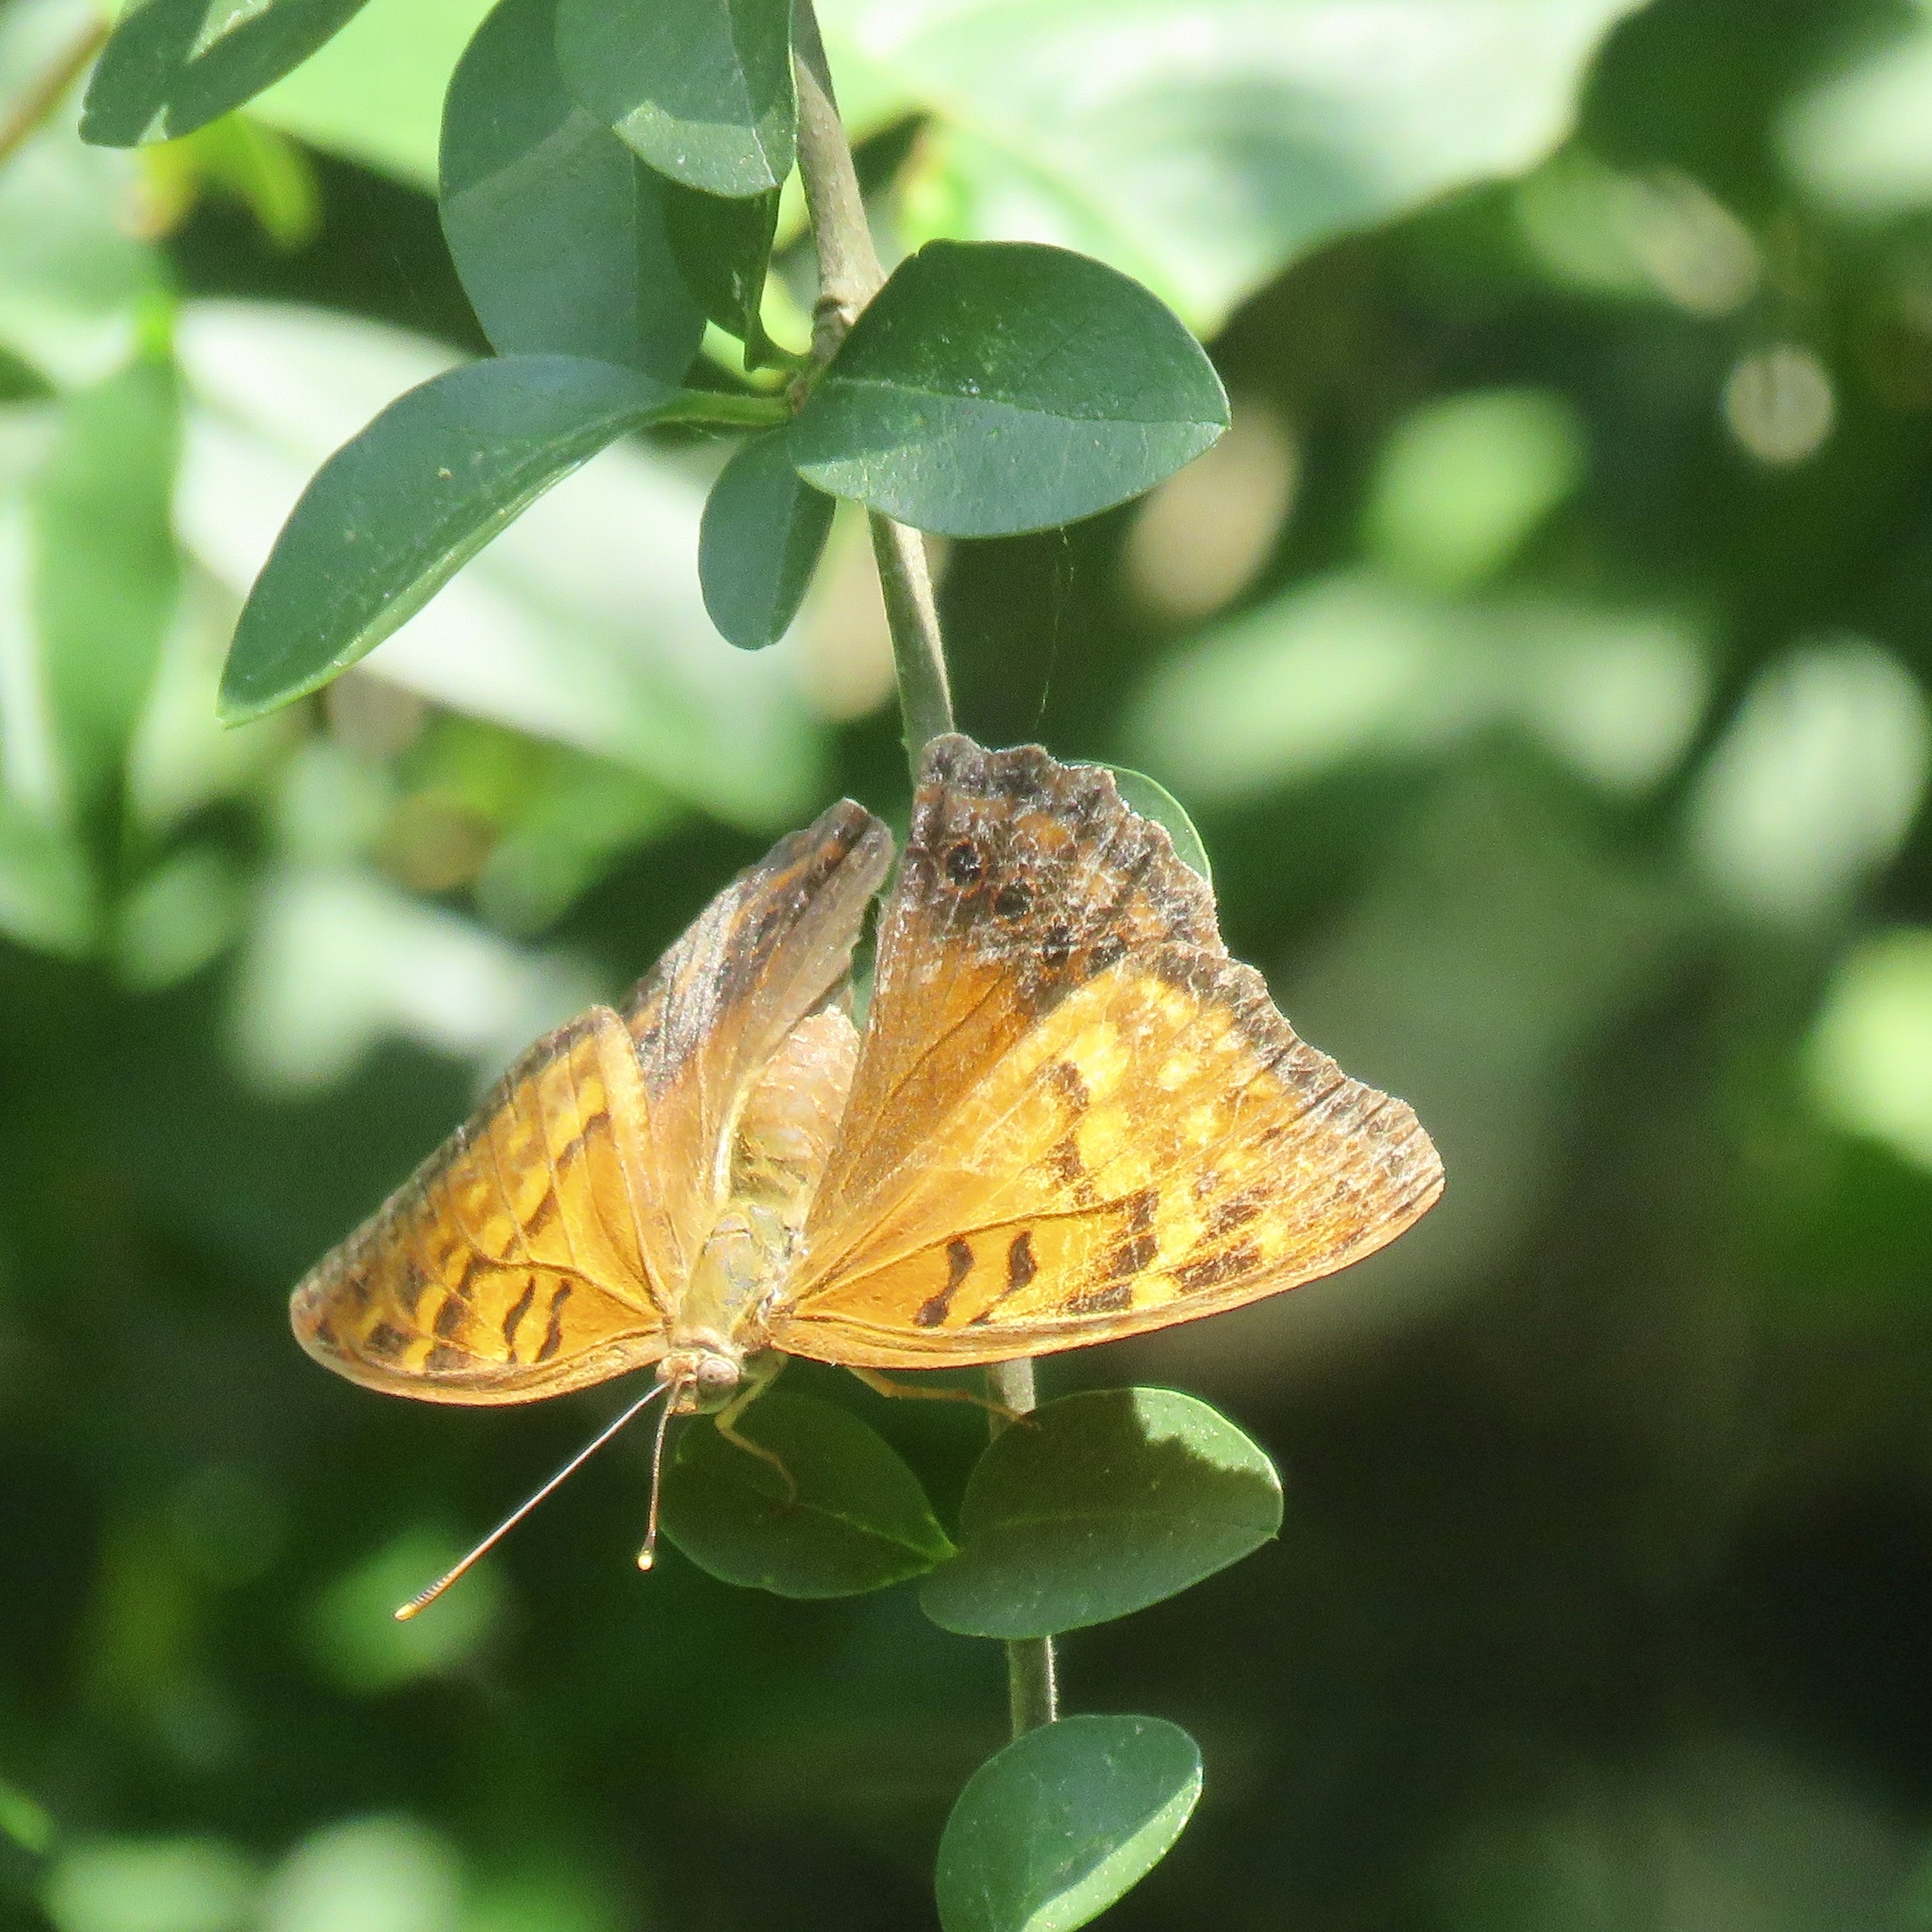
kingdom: Animalia
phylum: Arthropoda
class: Insecta
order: Lepidoptera
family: Nymphalidae
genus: Asterocampa
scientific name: Asterocampa clyton
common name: Tawny emperor
